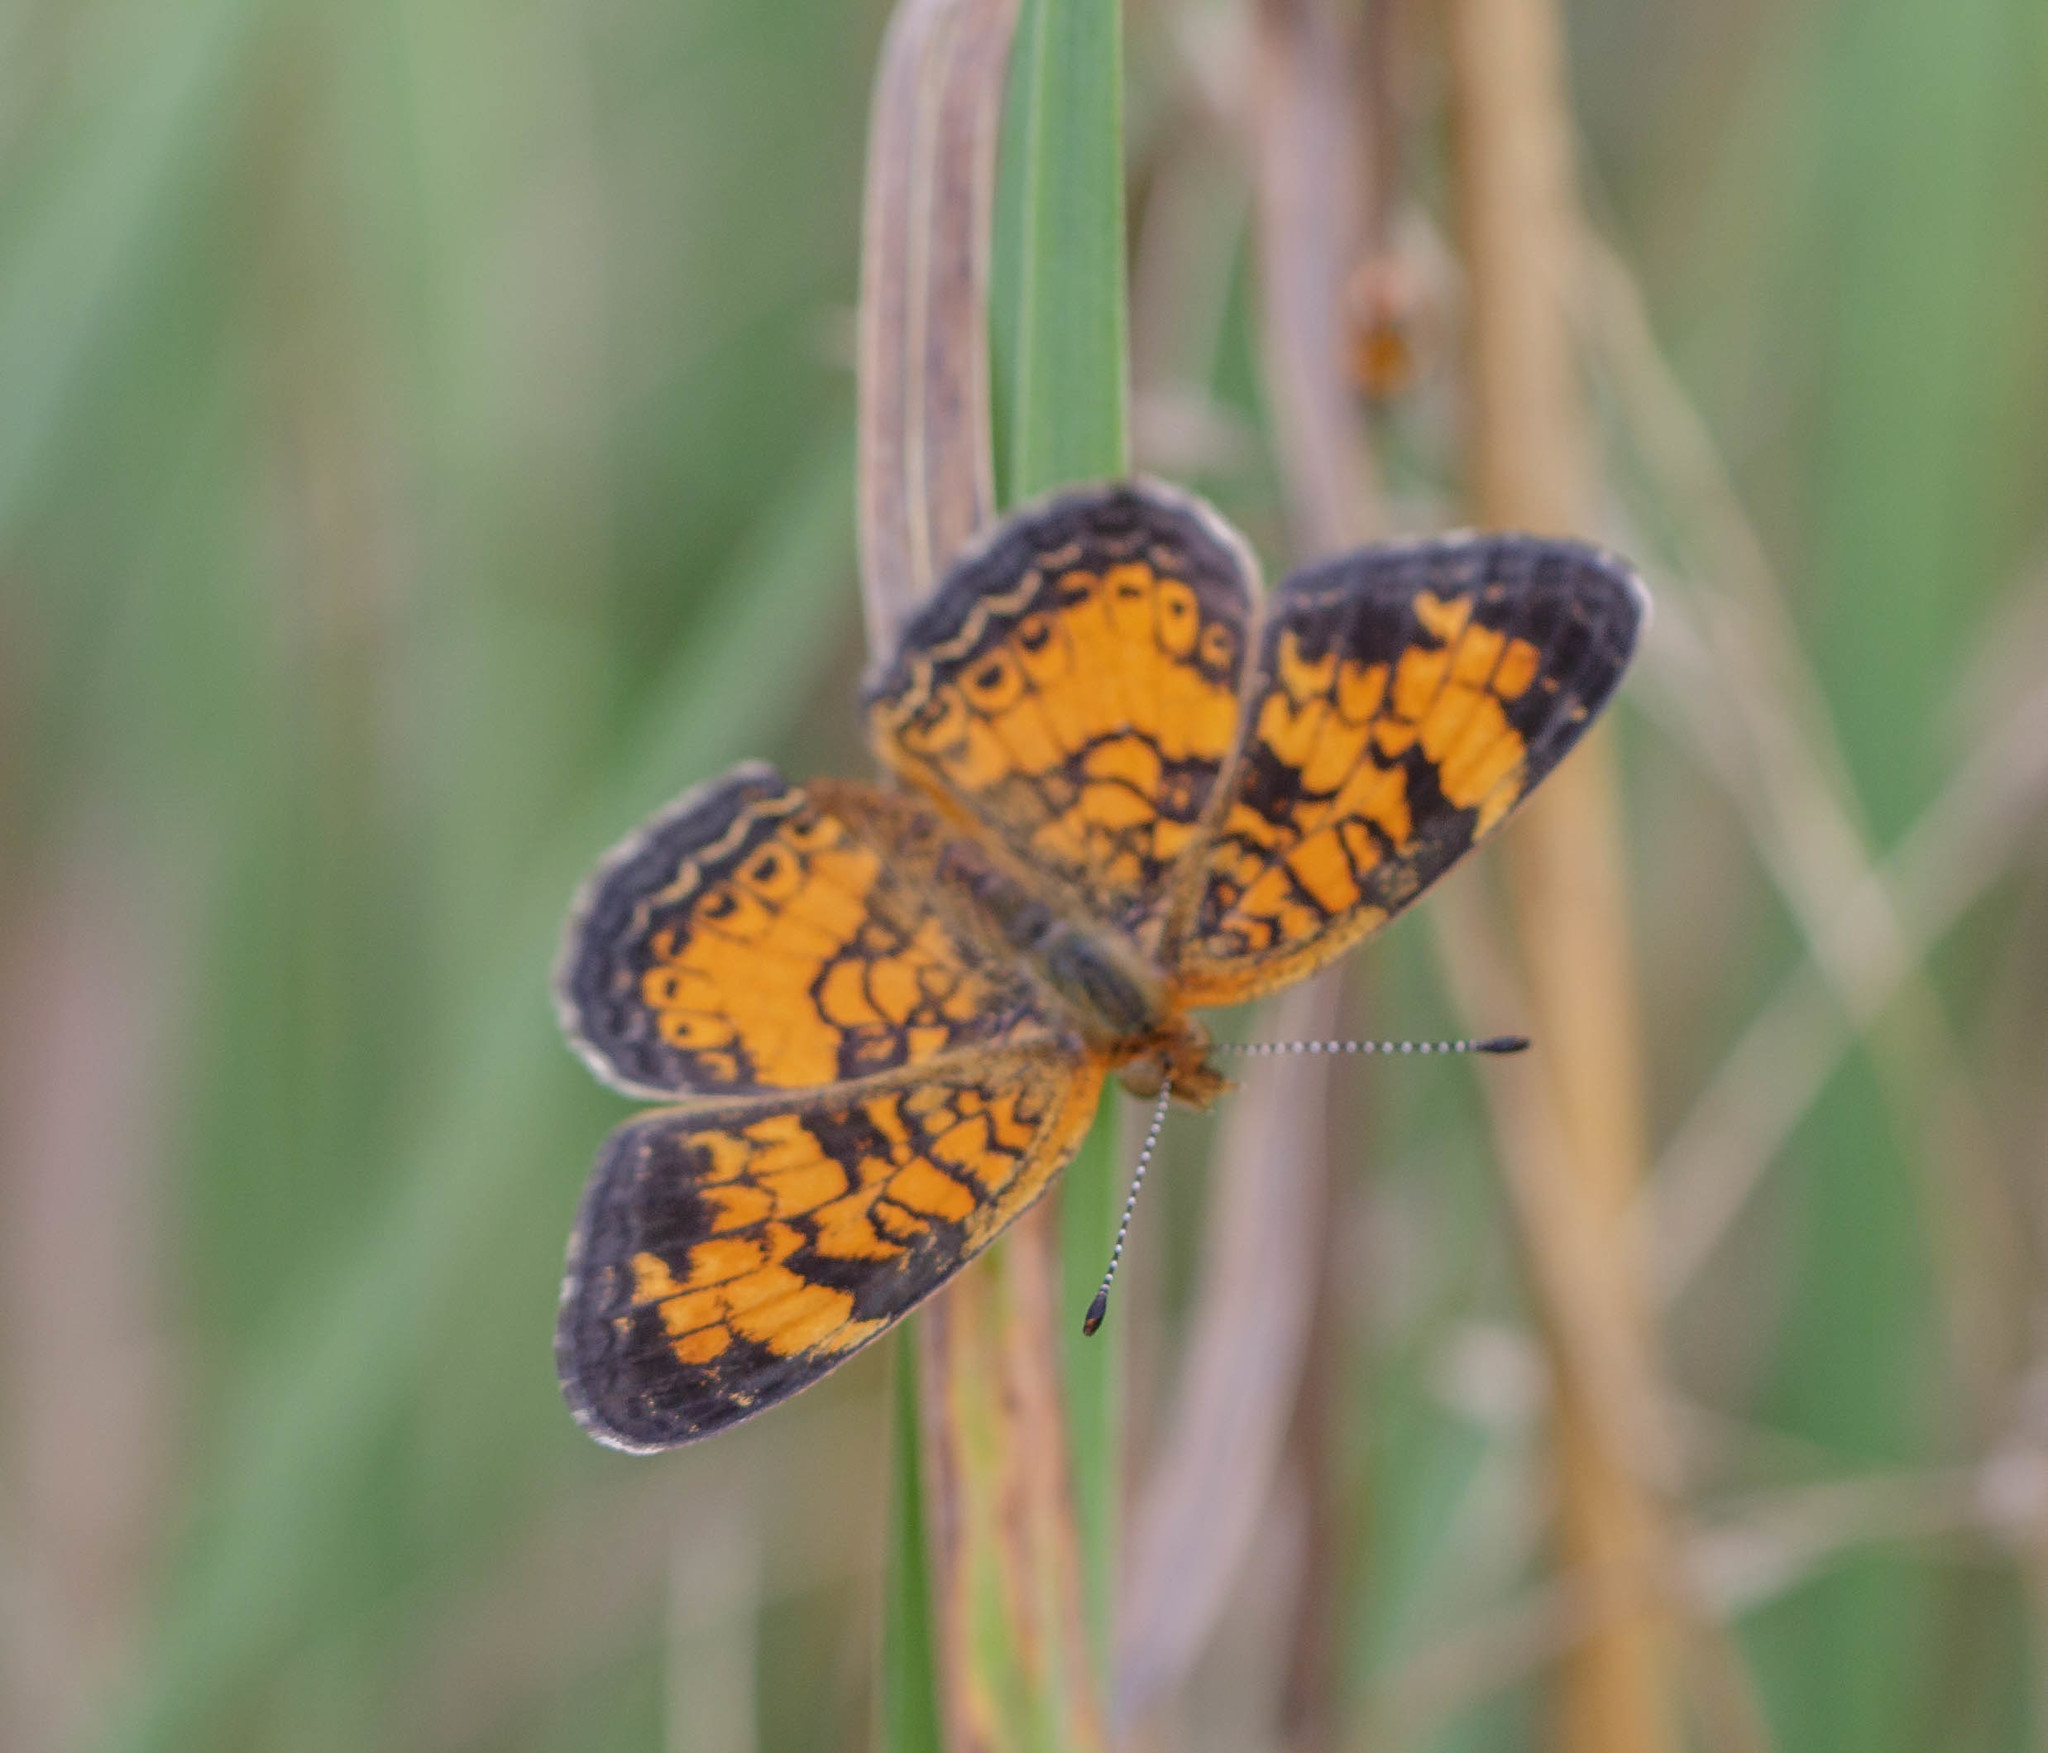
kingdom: Animalia
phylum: Arthropoda
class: Insecta
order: Lepidoptera
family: Nymphalidae
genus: Phyciodes
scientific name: Phyciodes tharos
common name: Pearl crescent
